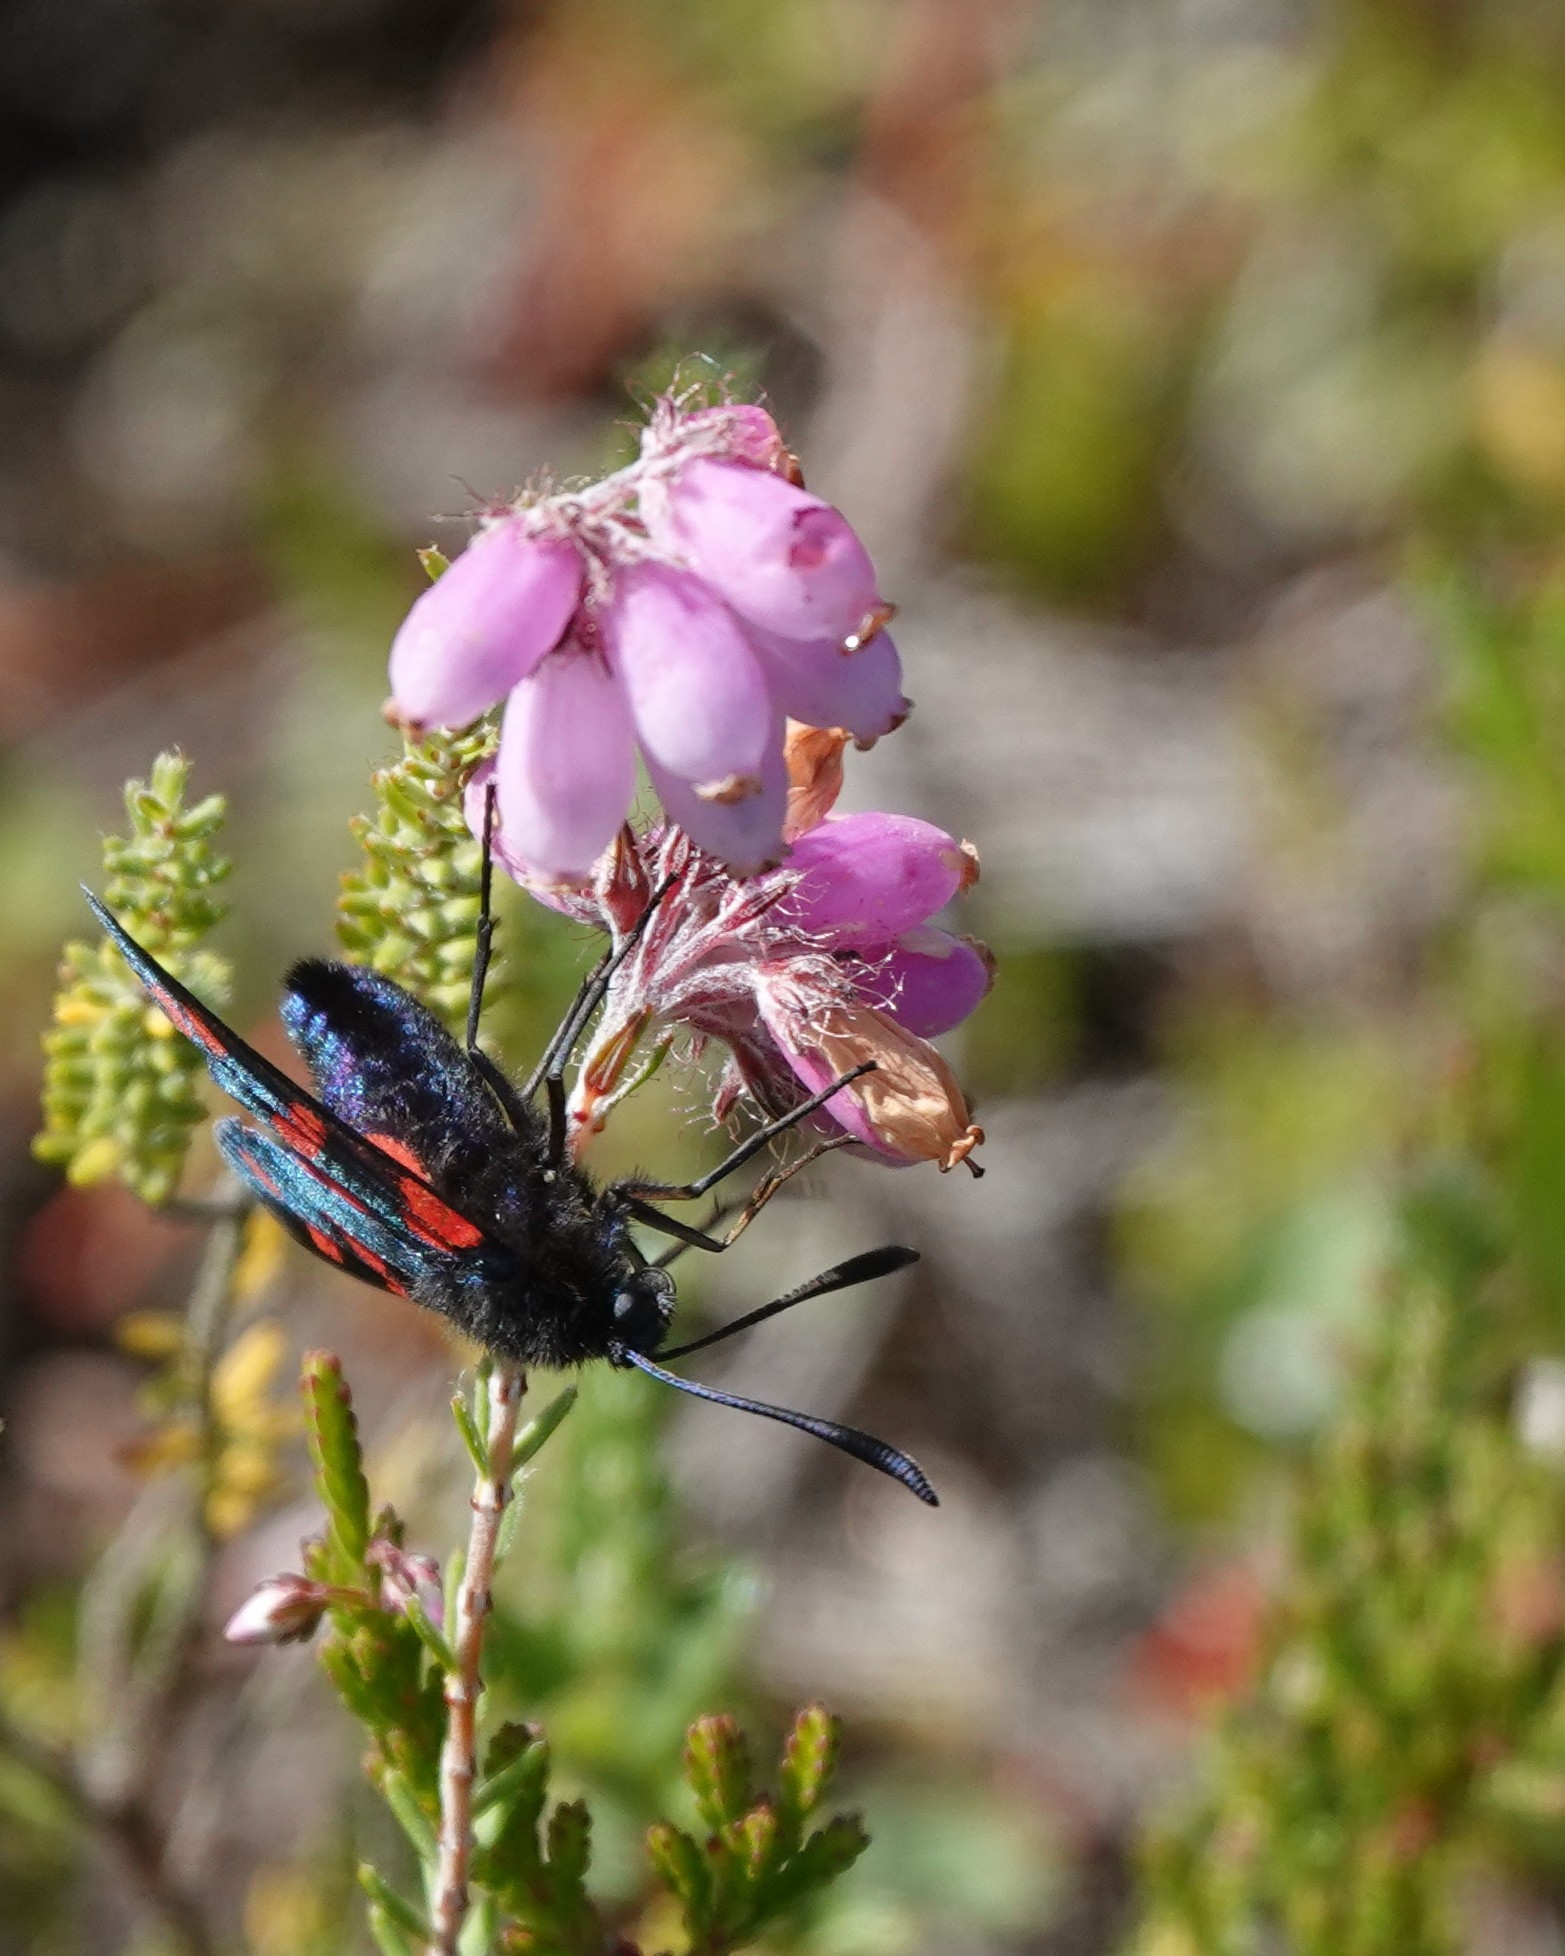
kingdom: Animalia
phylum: Arthropoda
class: Insecta
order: Lepidoptera
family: Zygaenidae
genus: Zygaena
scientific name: Zygaena filipendulae
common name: Six-spot burnet
